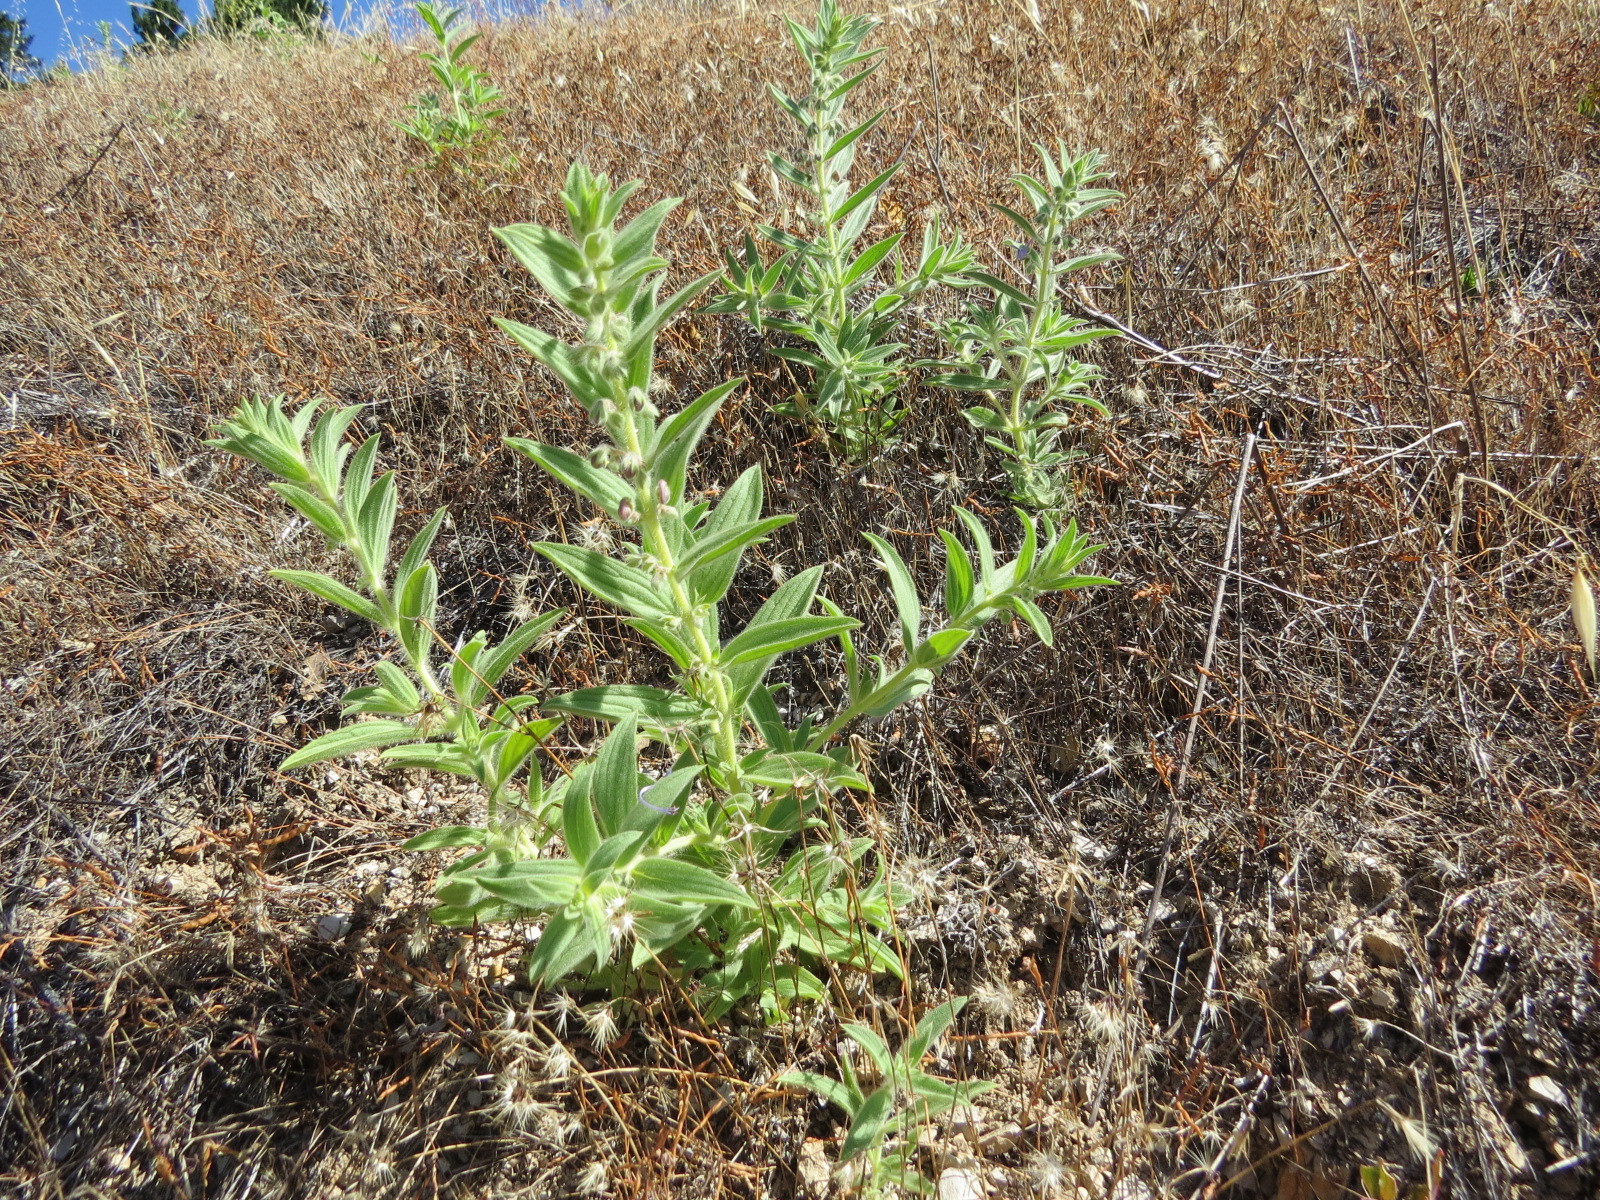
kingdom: Plantae
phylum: Tracheophyta
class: Magnoliopsida
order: Lamiales
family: Lamiaceae
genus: Trichostema
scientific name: Trichostema lanceolatum
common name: Vinegar-weed
